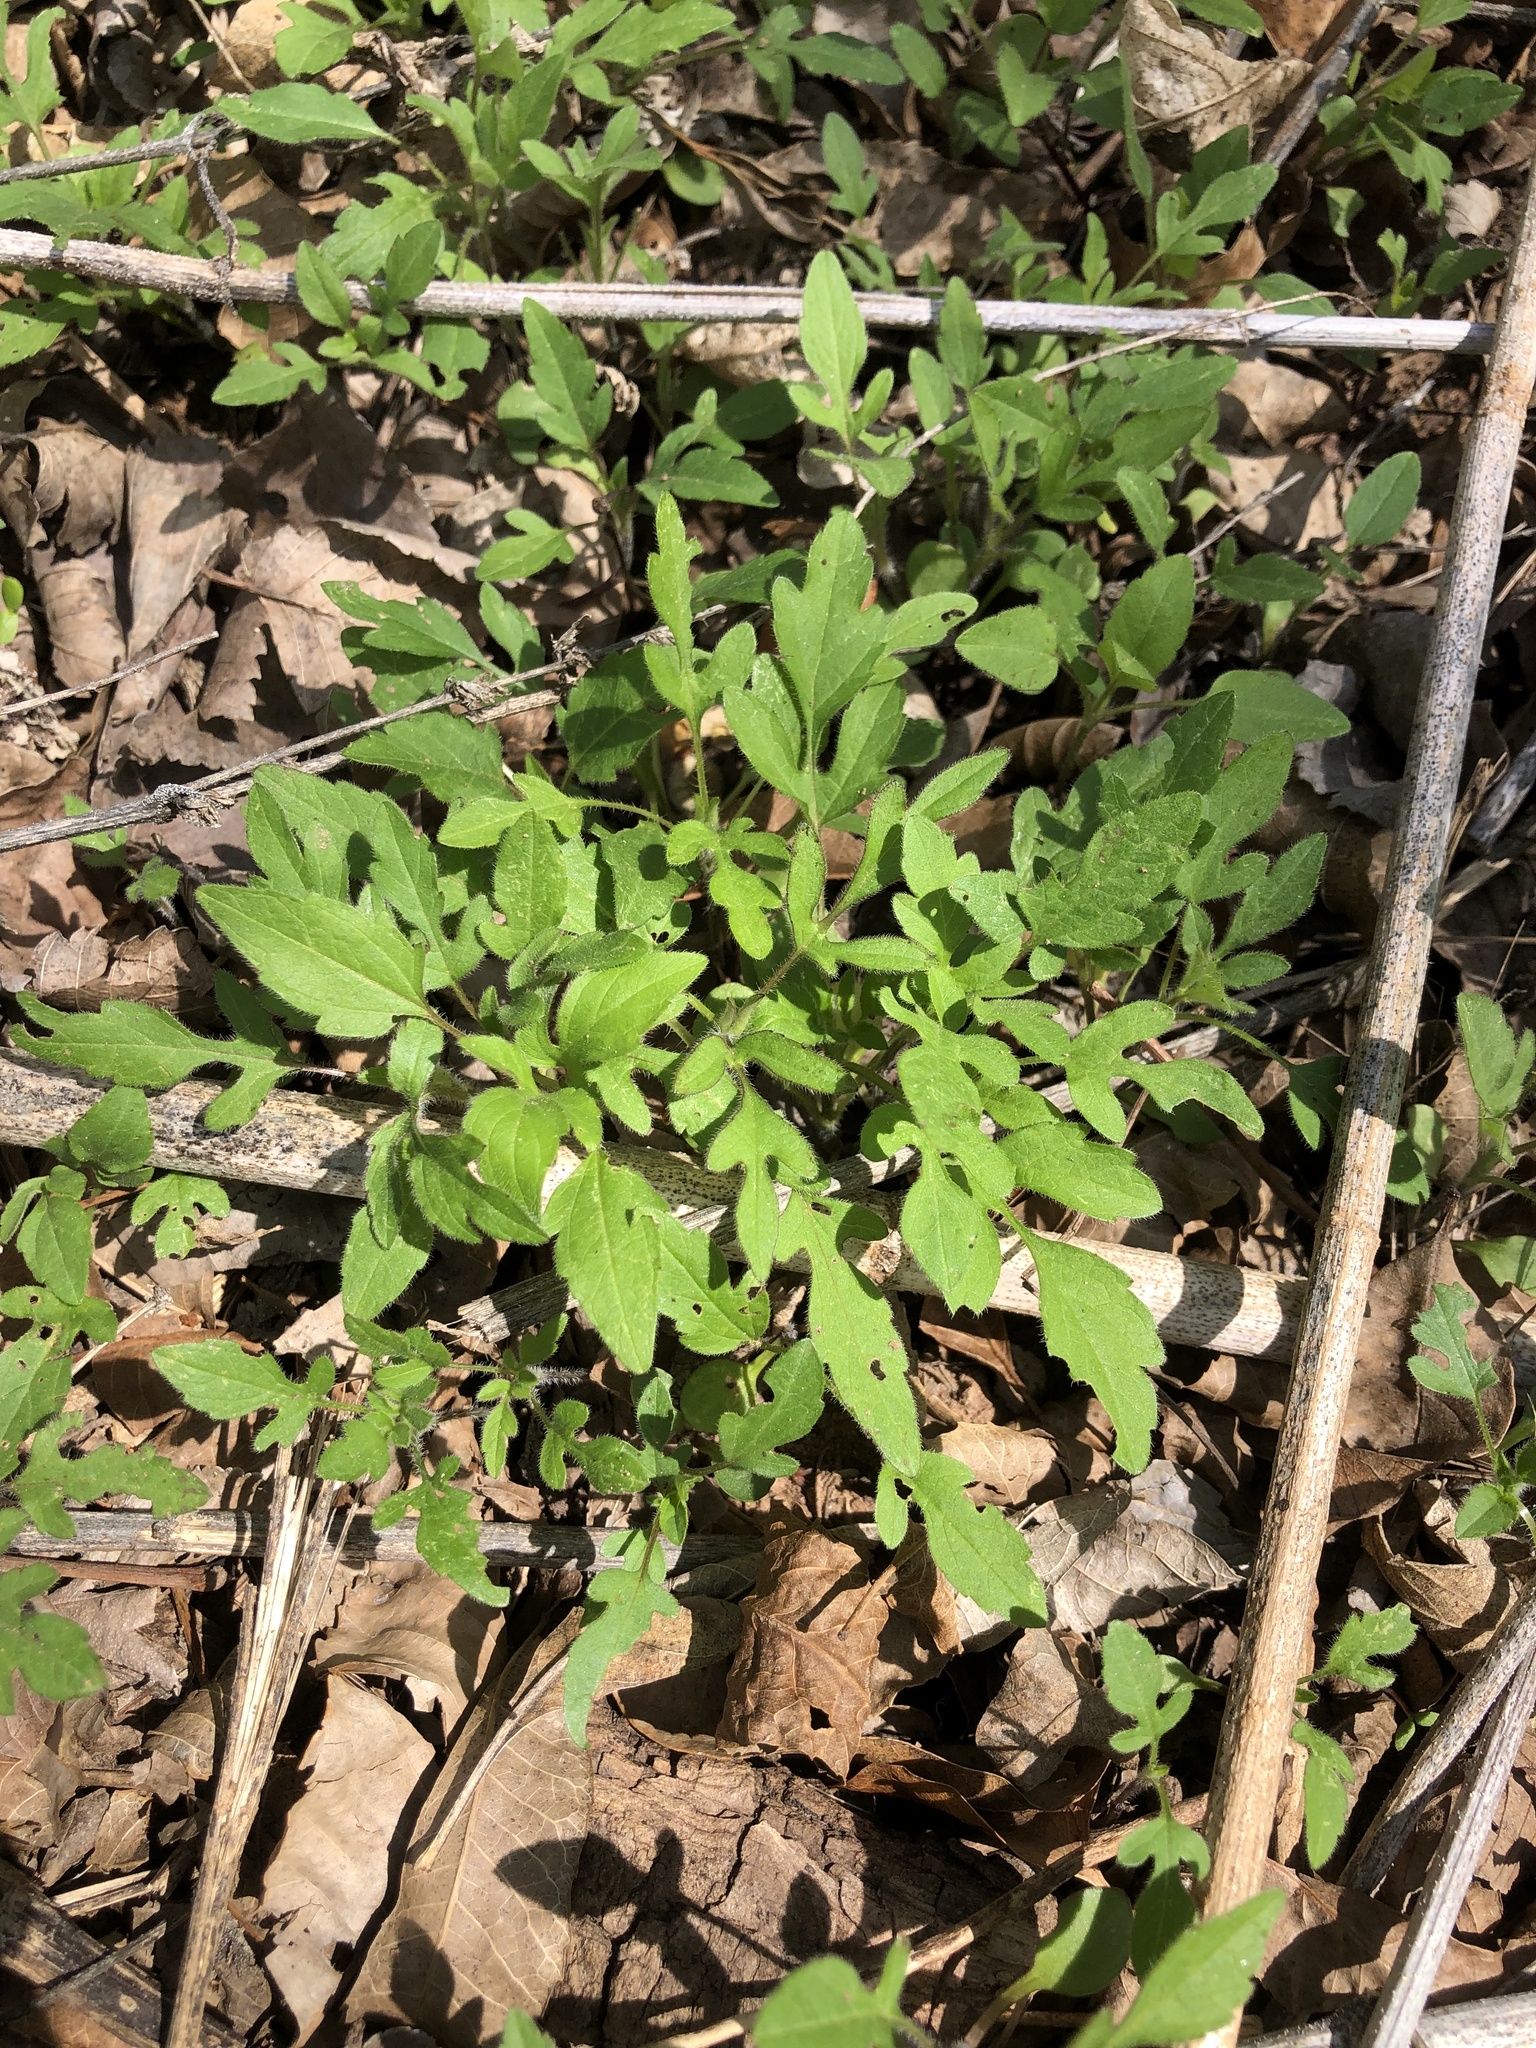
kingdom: Plantae
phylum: Tracheophyta
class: Magnoliopsida
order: Asterales
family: Asteraceae
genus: Ambrosia
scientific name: Ambrosia trifida
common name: Giant ragweed
